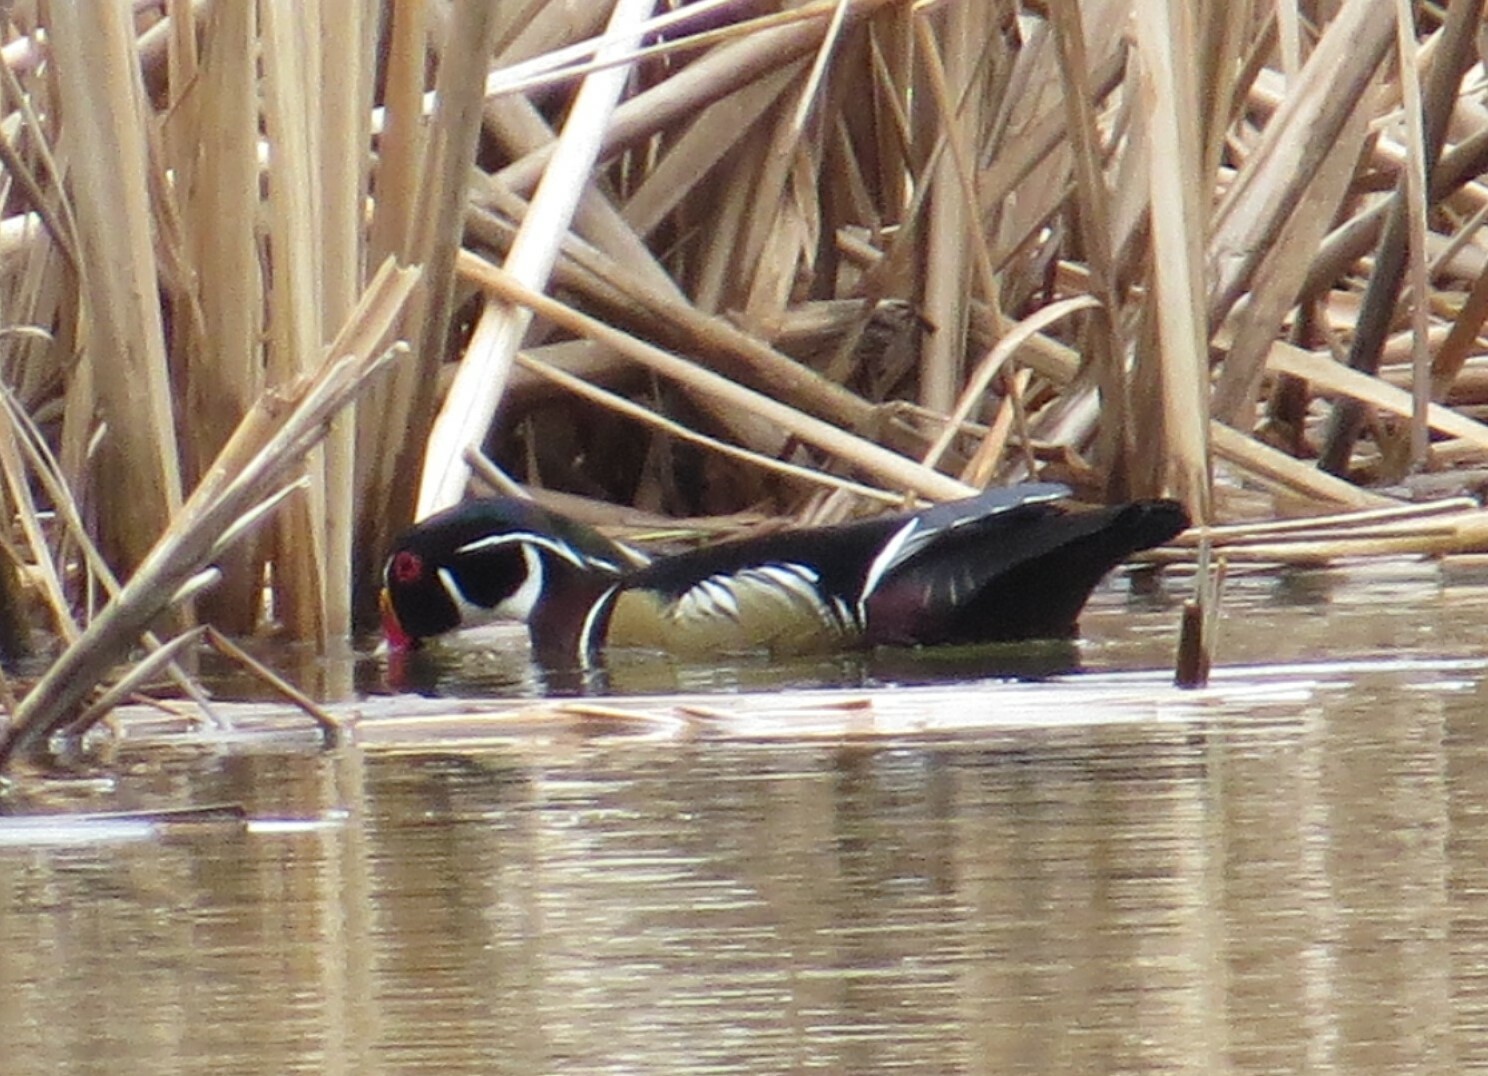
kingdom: Animalia
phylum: Chordata
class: Aves
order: Anseriformes
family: Anatidae
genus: Aix
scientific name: Aix sponsa
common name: Wood duck
